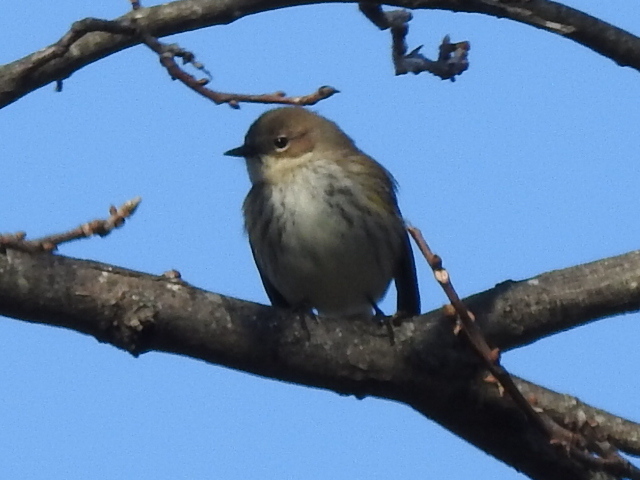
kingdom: Animalia
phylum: Chordata
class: Aves
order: Passeriformes
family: Parulidae
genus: Setophaga
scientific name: Setophaga coronata
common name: Myrtle warbler
